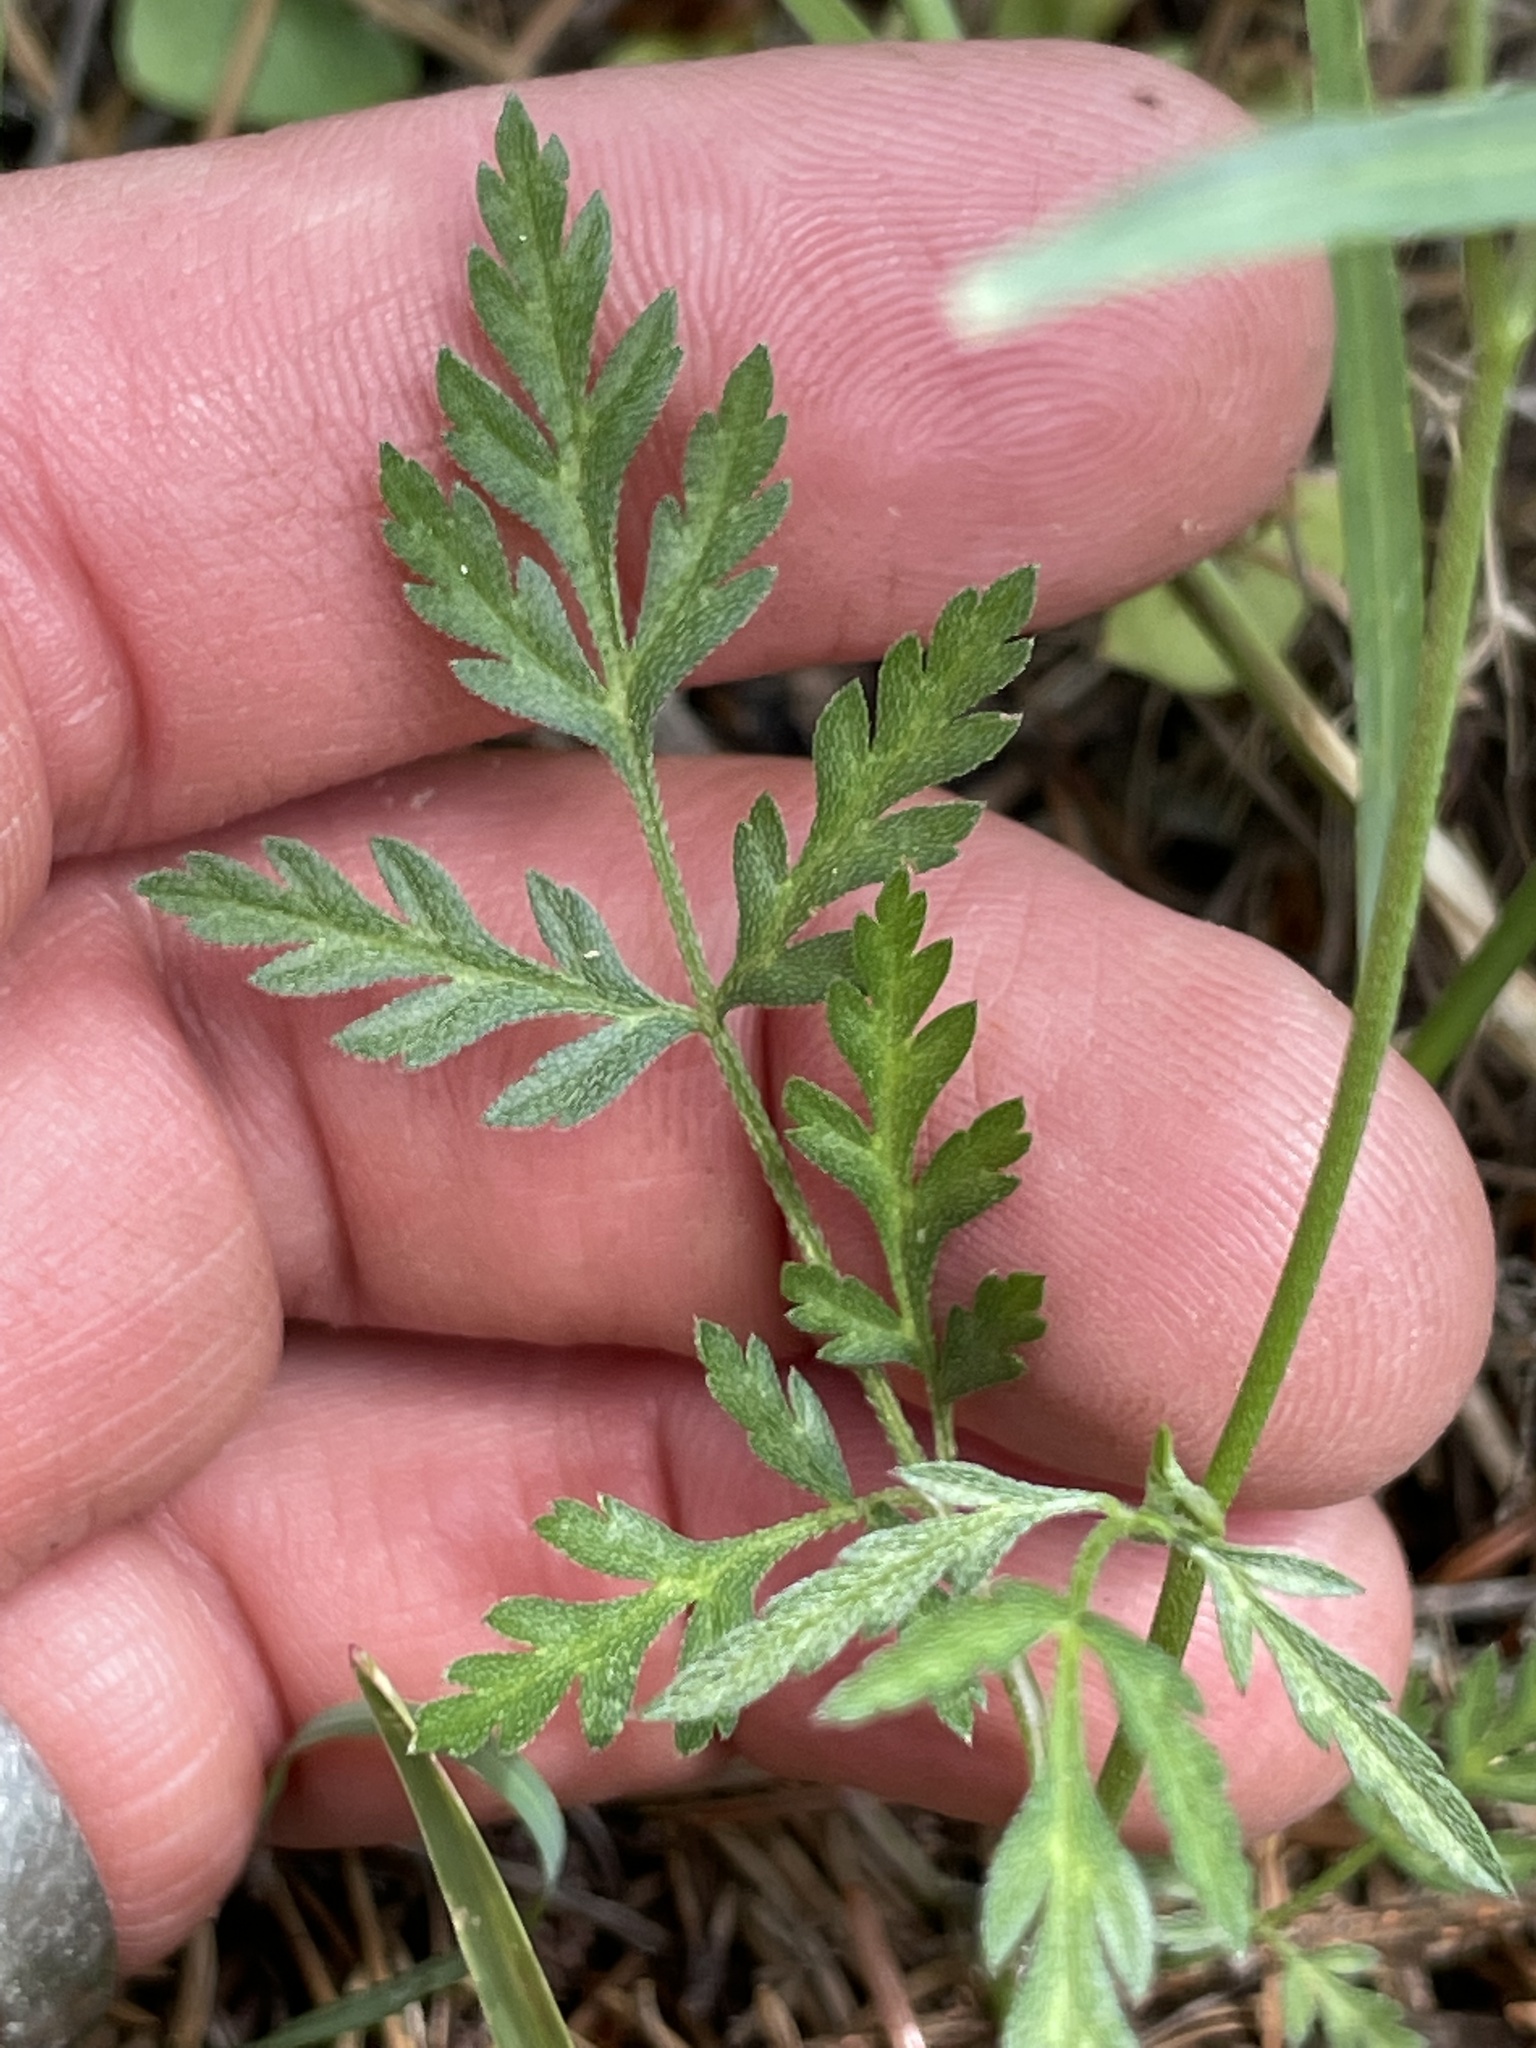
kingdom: Plantae
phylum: Tracheophyta
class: Magnoliopsida
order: Apiales
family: Apiaceae
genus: Torilis
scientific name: Torilis arvensis
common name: Spreading hedge-parsley
